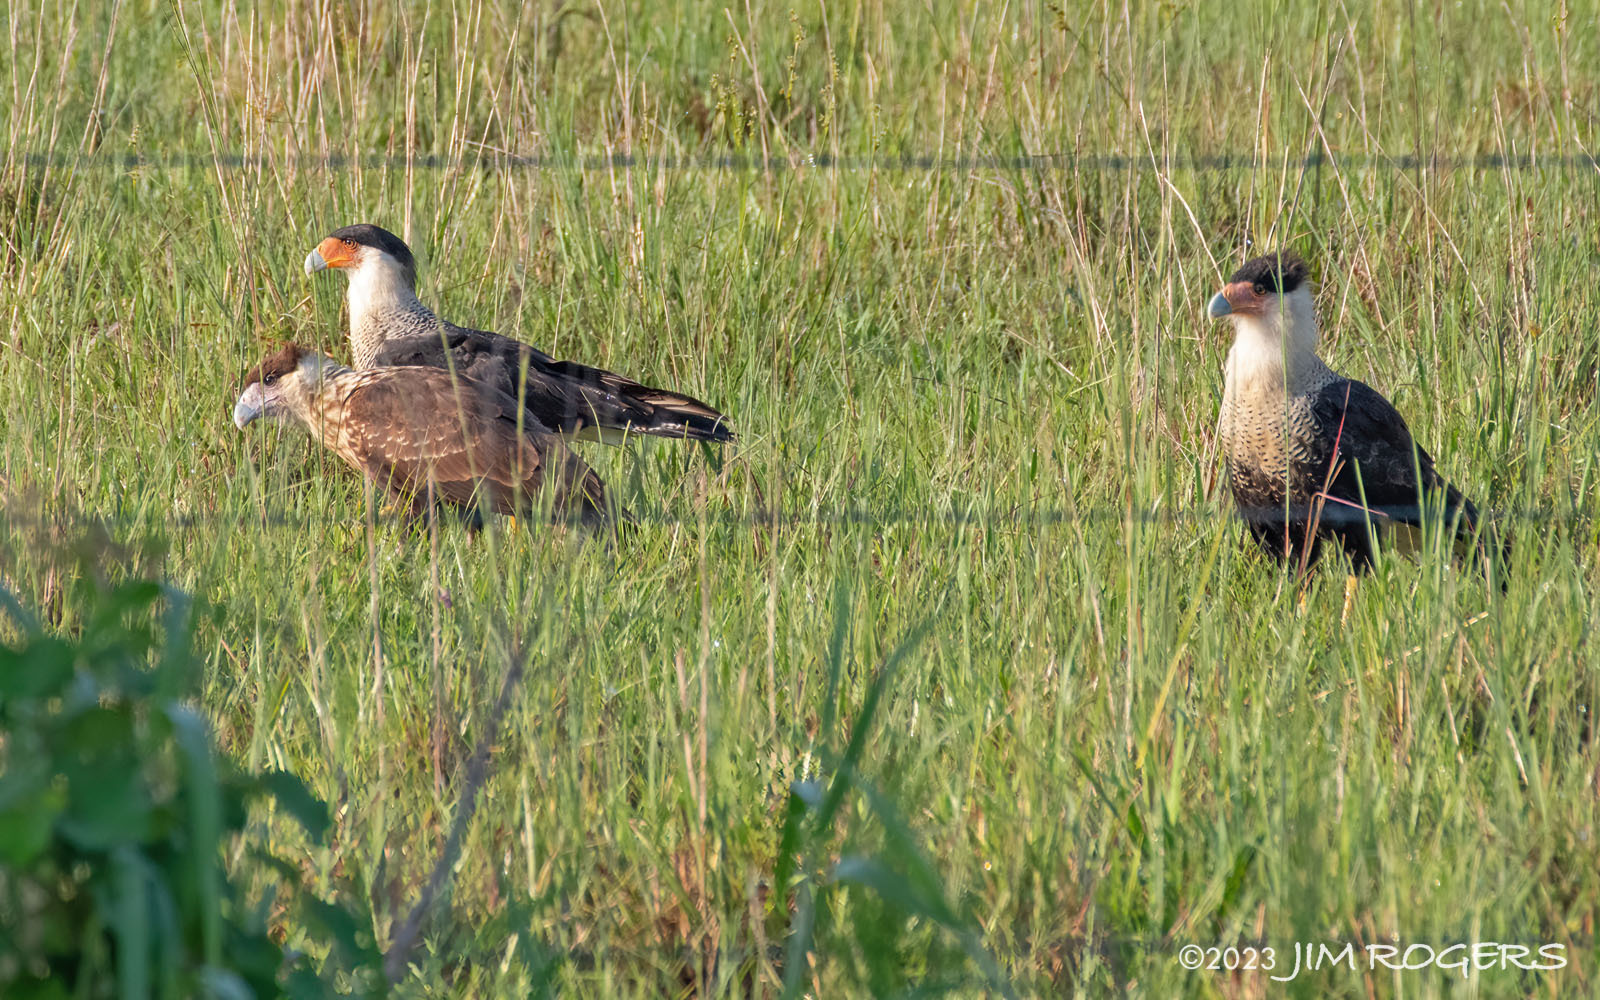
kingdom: Animalia
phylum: Chordata
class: Aves
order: Falconiformes
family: Falconidae
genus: Caracara
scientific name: Caracara plancus
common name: Southern caracara
